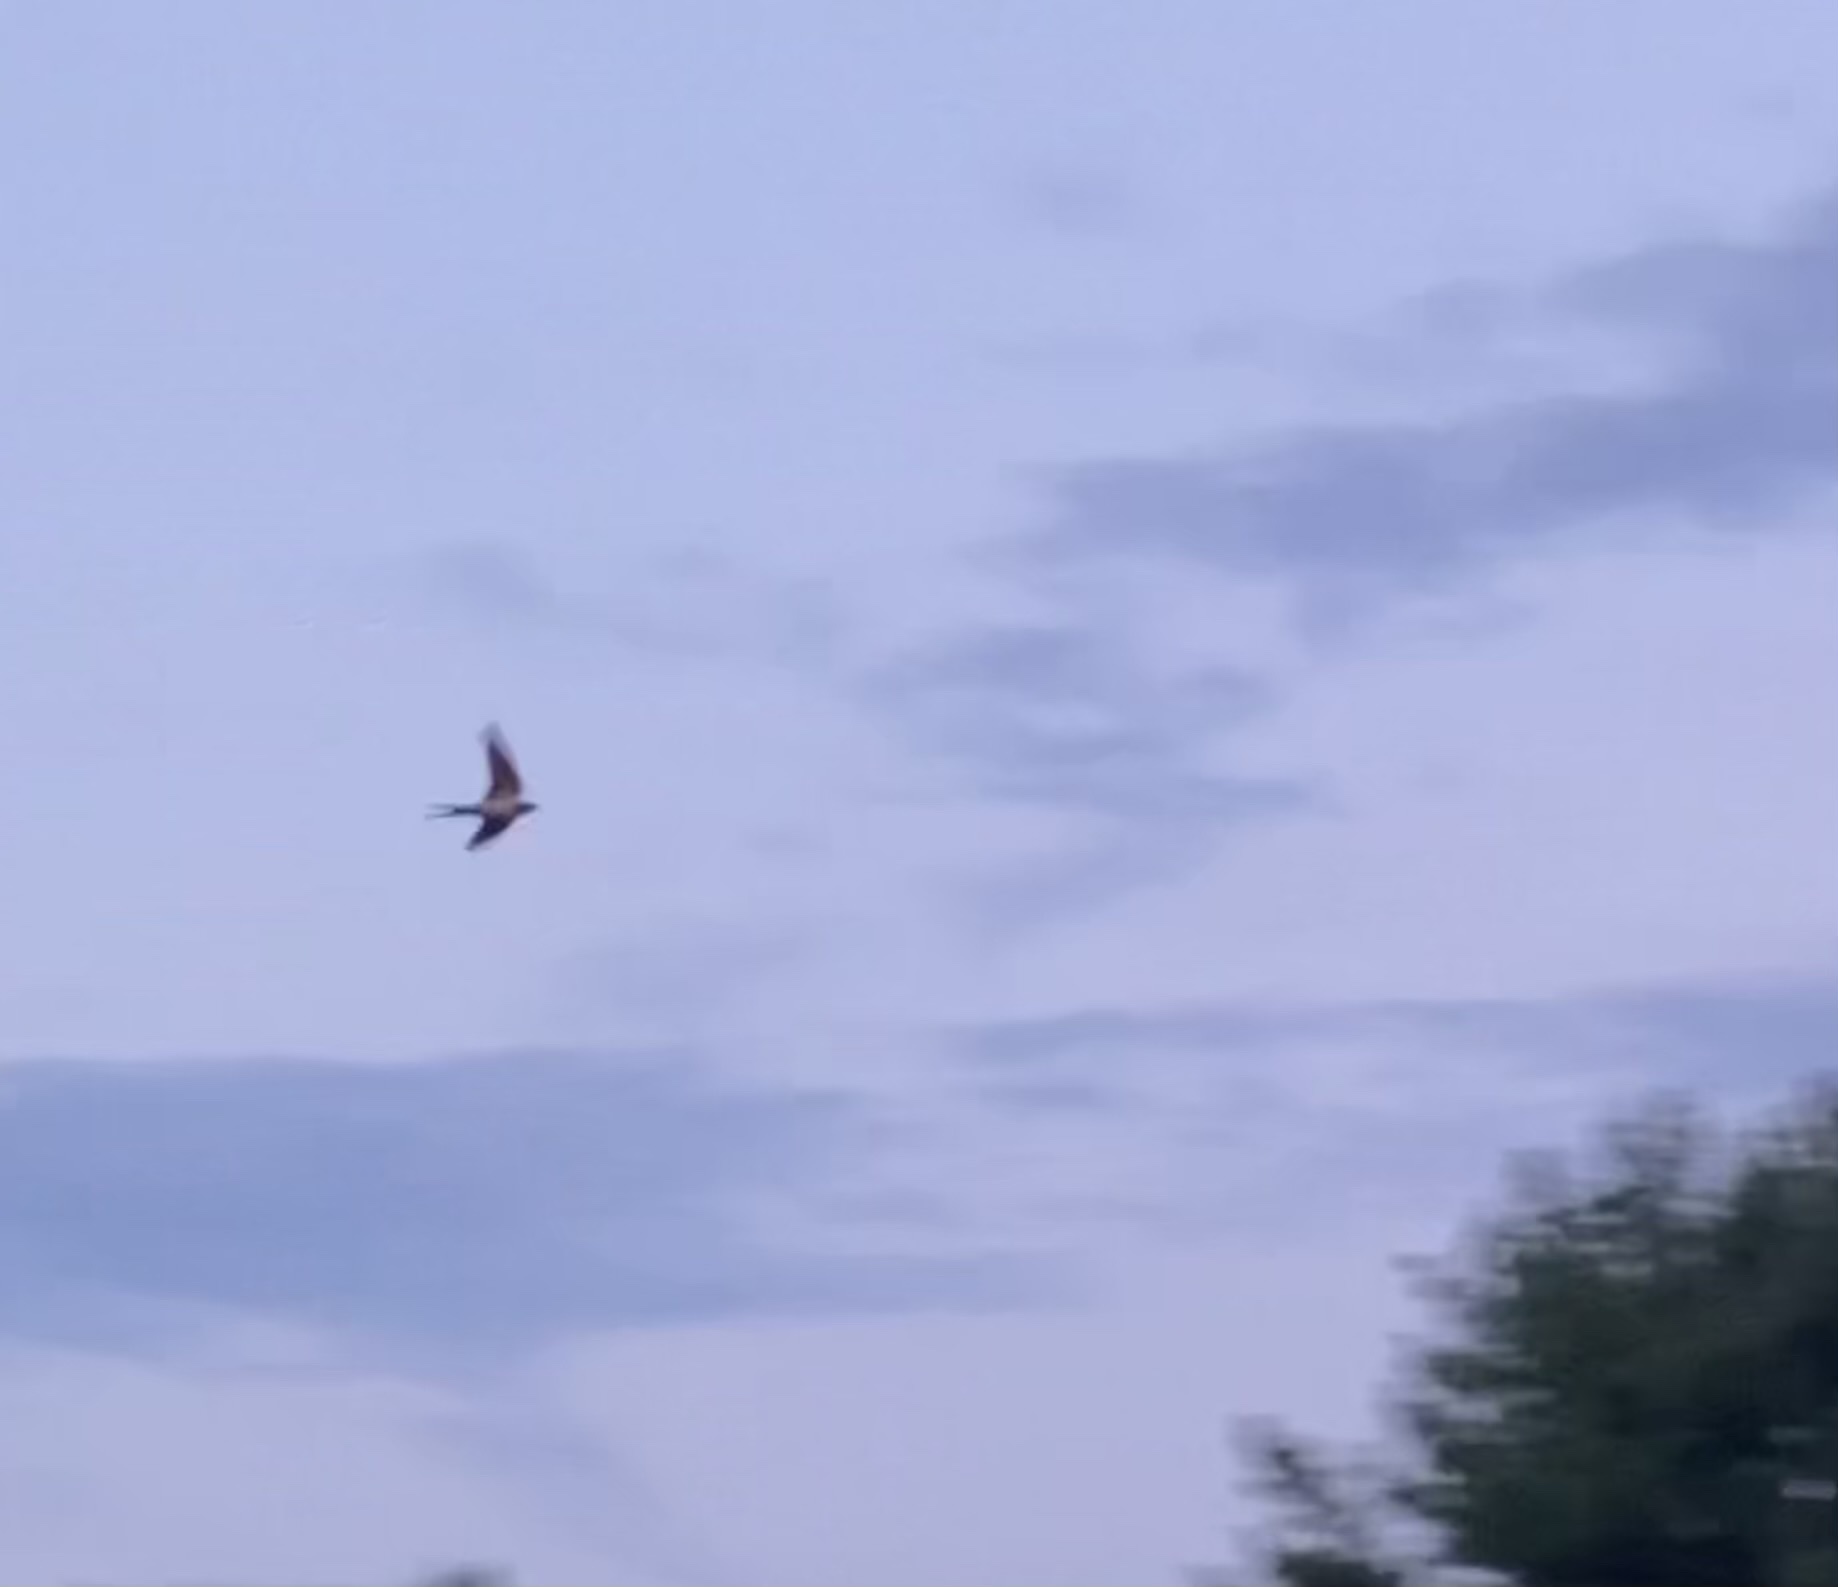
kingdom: Animalia
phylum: Chordata
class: Aves
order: Passeriformes
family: Hirundinidae
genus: Hirundo
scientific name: Hirundo rustica
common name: Barn swallow
